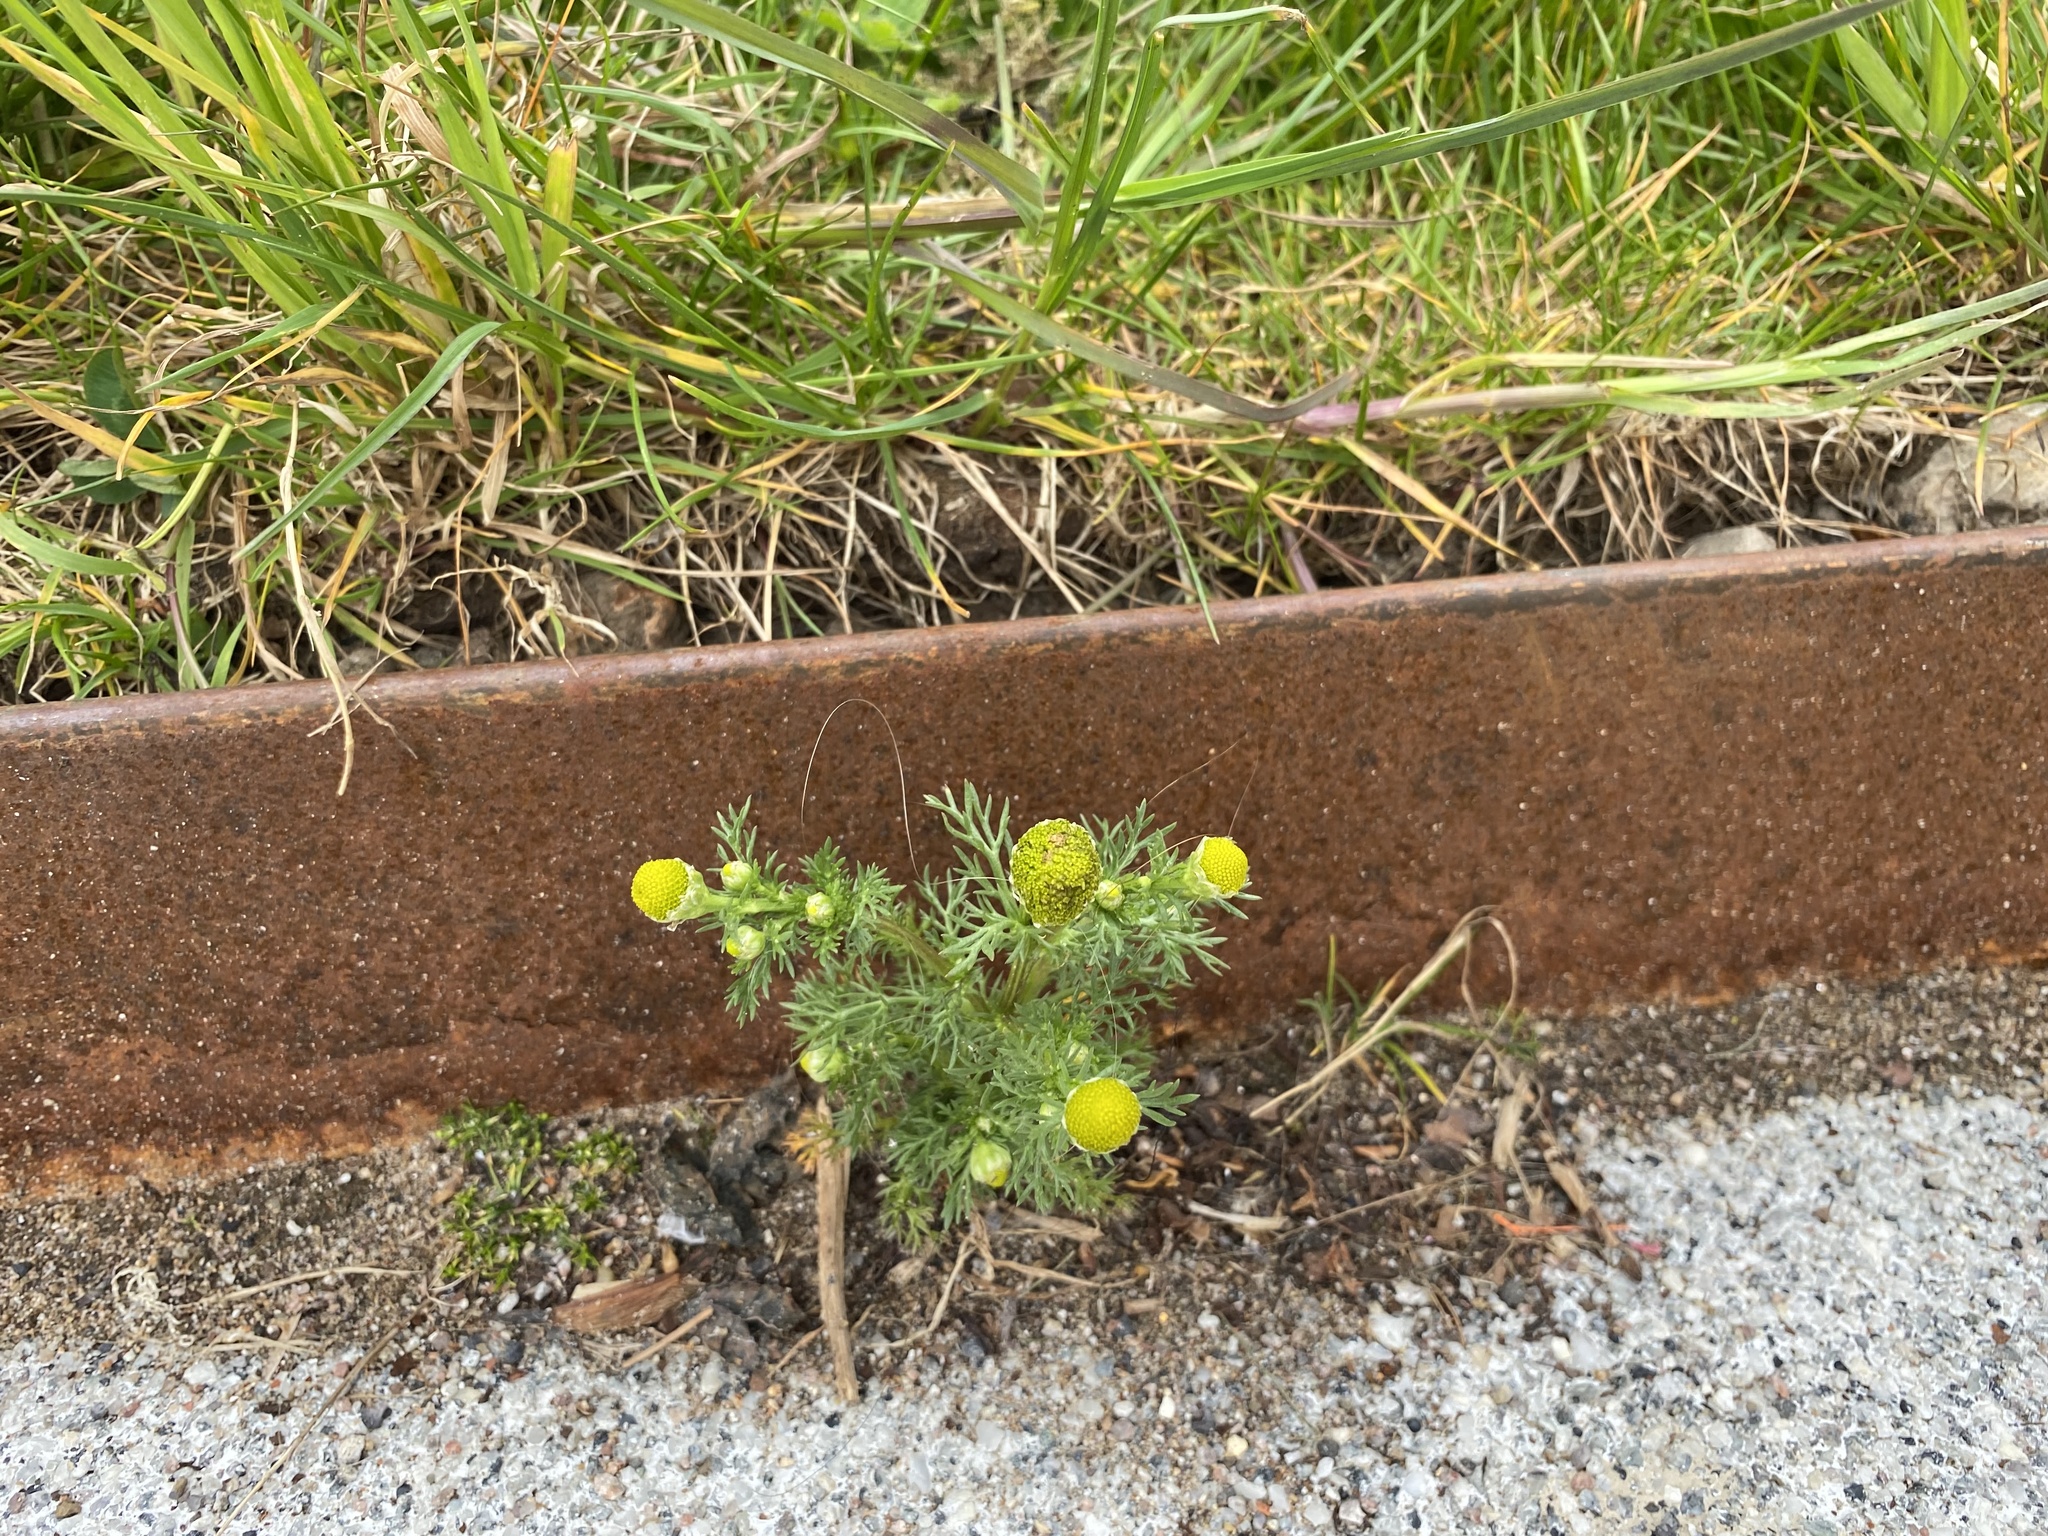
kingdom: Plantae
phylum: Tracheophyta
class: Magnoliopsida
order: Asterales
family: Asteraceae
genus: Matricaria
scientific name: Matricaria discoidea
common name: Disc mayweed
